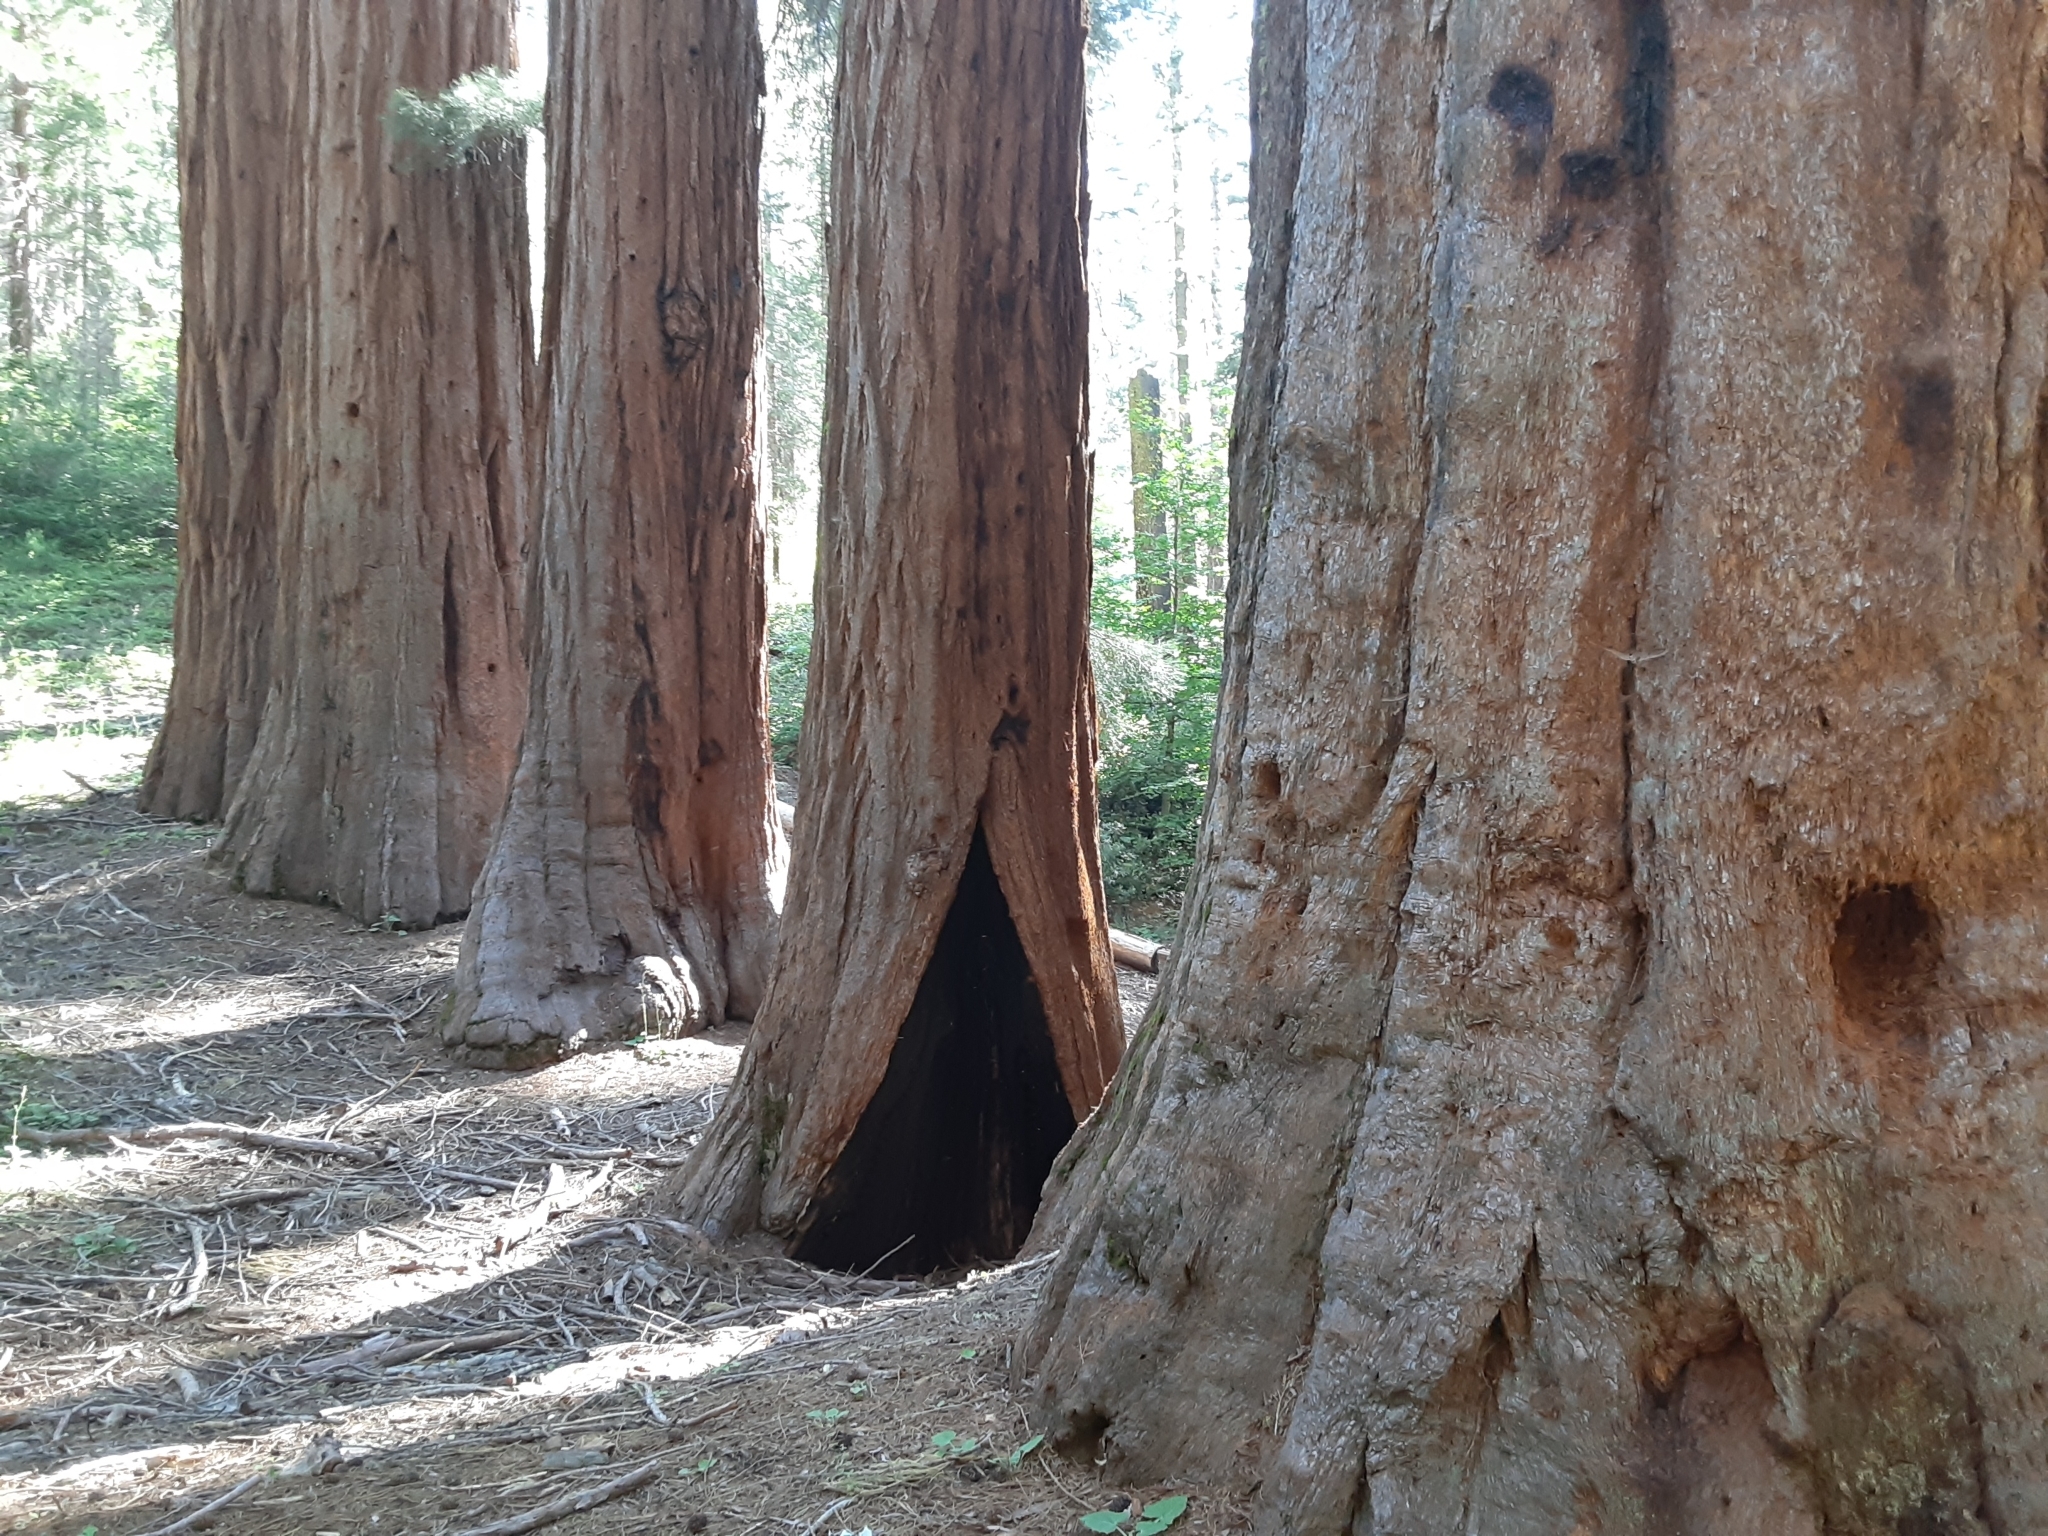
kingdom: Plantae
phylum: Tracheophyta
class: Pinopsida
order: Pinales
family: Cupressaceae
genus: Sequoiadendron
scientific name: Sequoiadendron giganteum
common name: Wellingtonia
